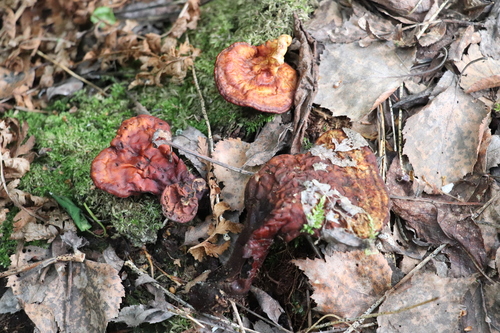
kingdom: Fungi
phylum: Basidiomycota
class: Agaricomycetes
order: Polyporales
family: Polyporaceae
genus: Ganoderma
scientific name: Ganoderma lucidum
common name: Lacquered bracket
